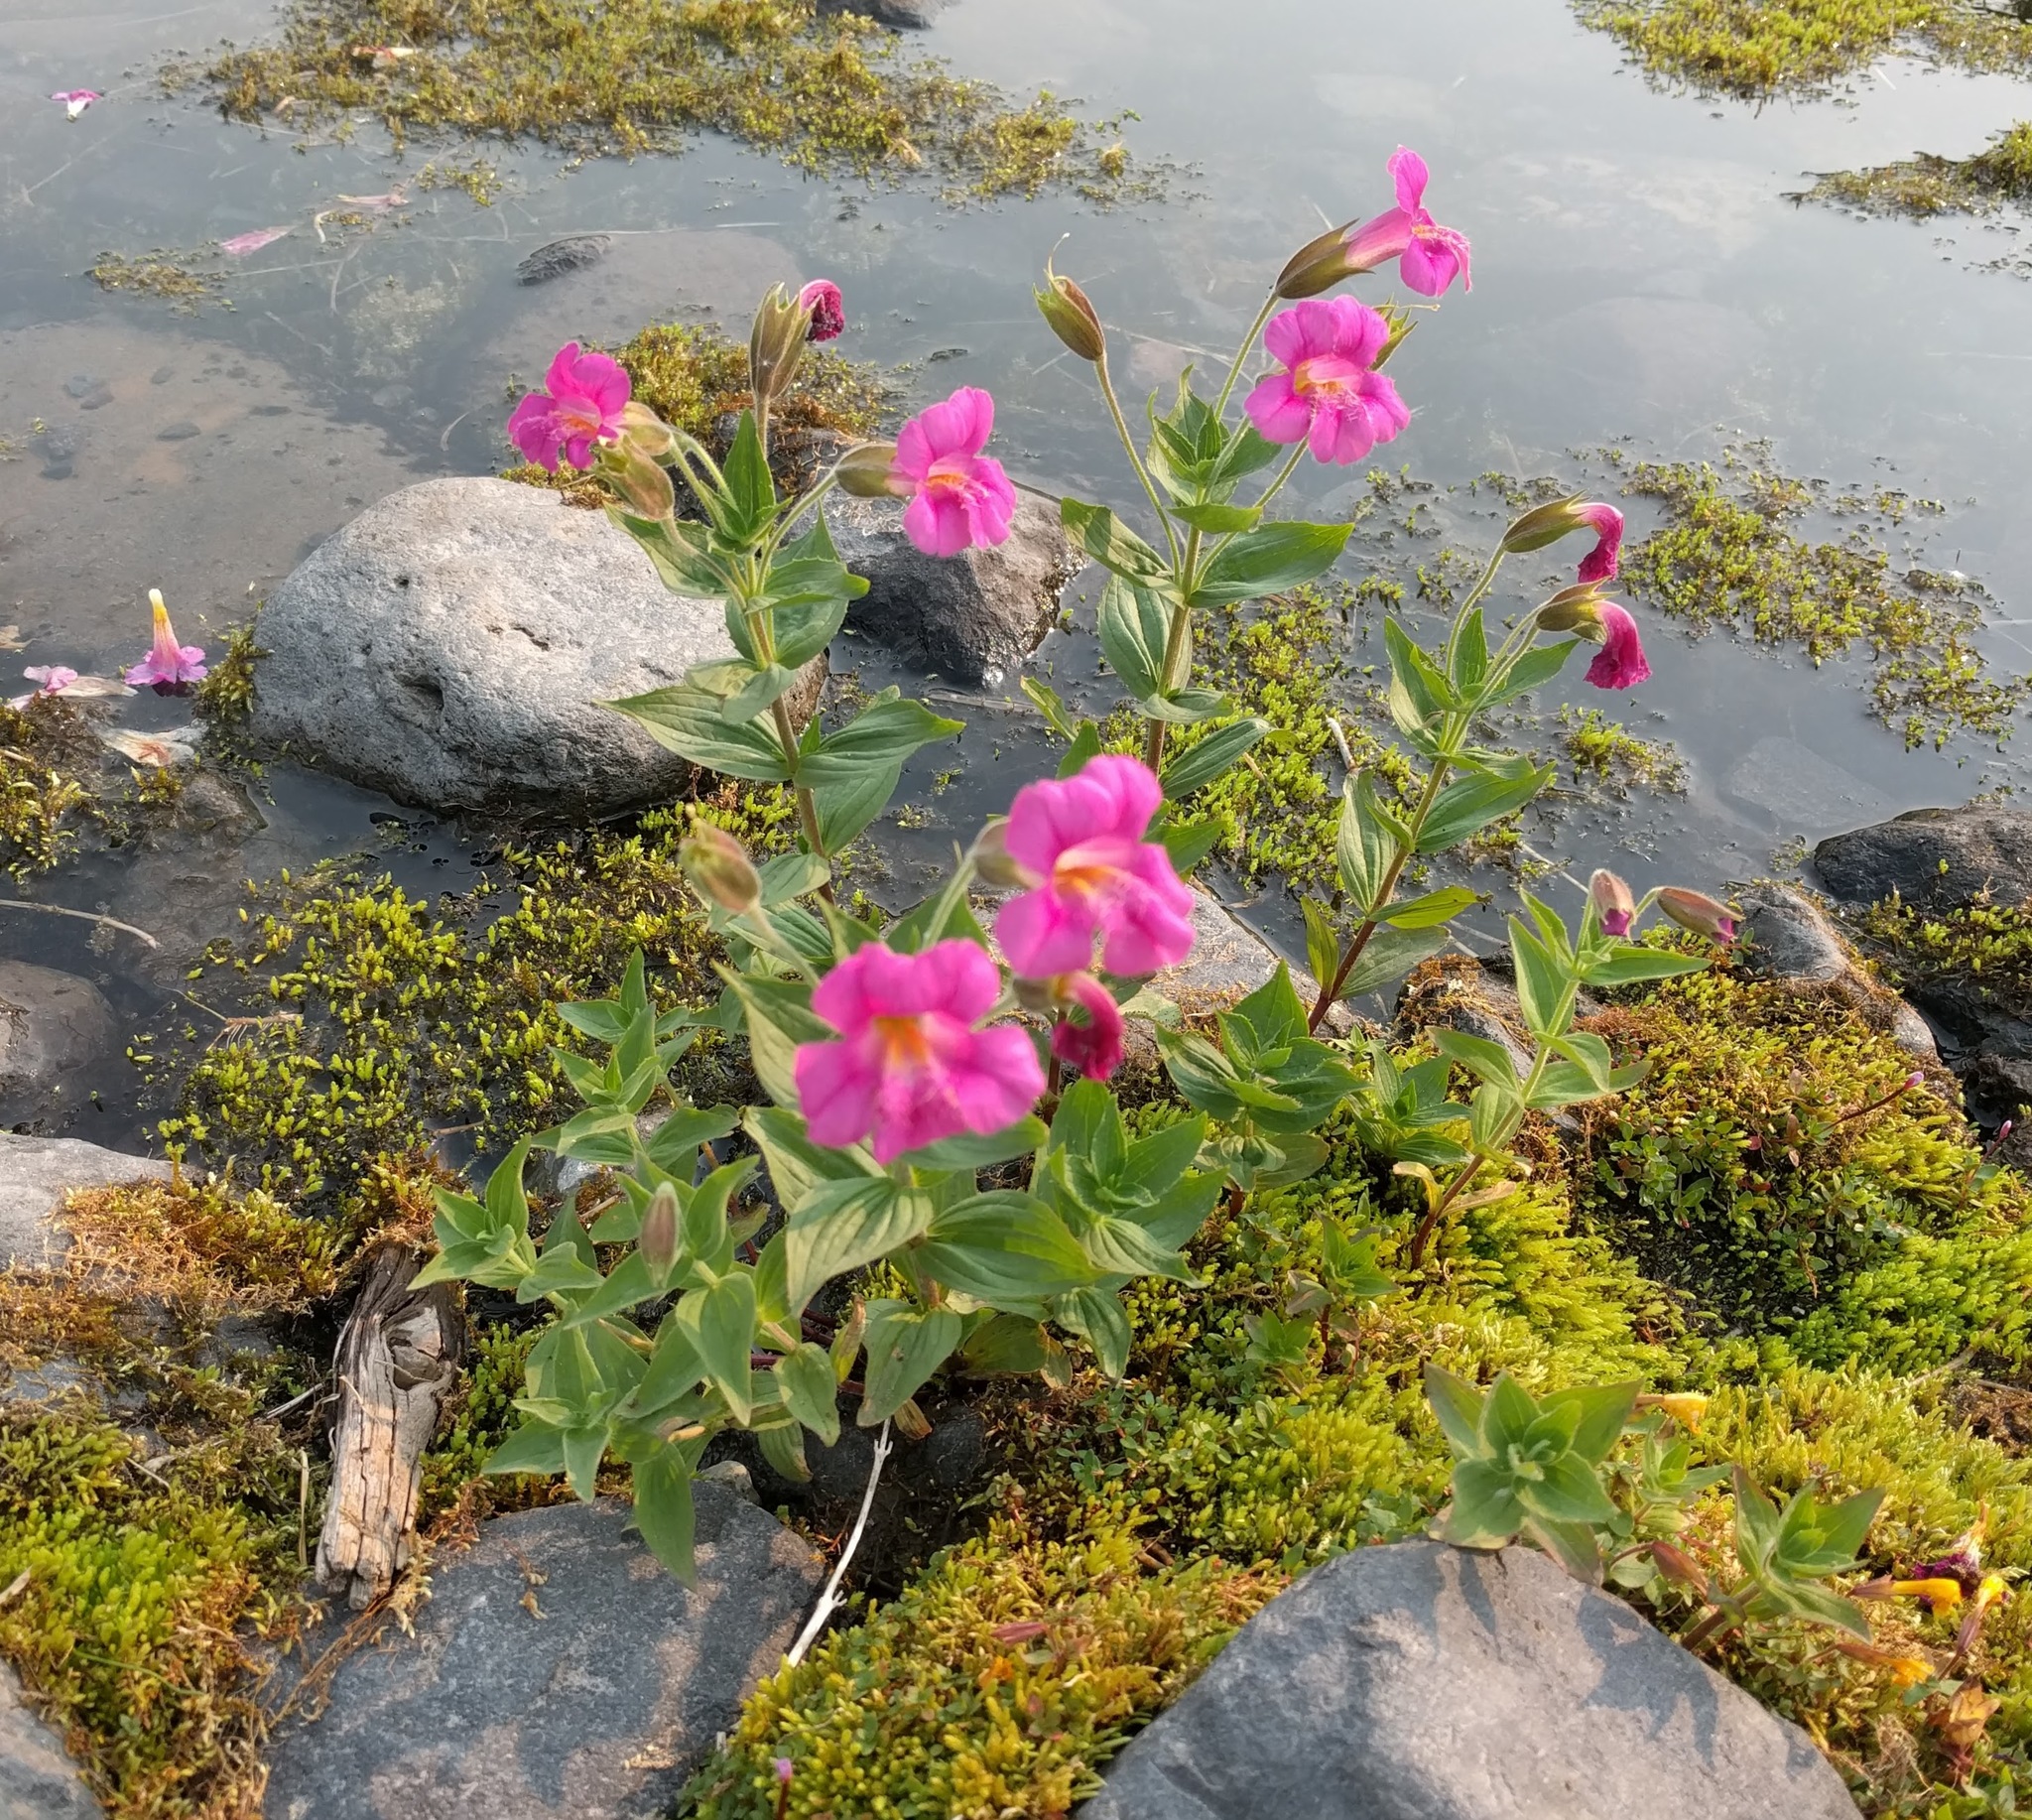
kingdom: Plantae
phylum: Tracheophyta
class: Magnoliopsida
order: Lamiales
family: Phrymaceae
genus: Erythranthe
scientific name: Erythranthe lewisii
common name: Lewis's monkey-flower
